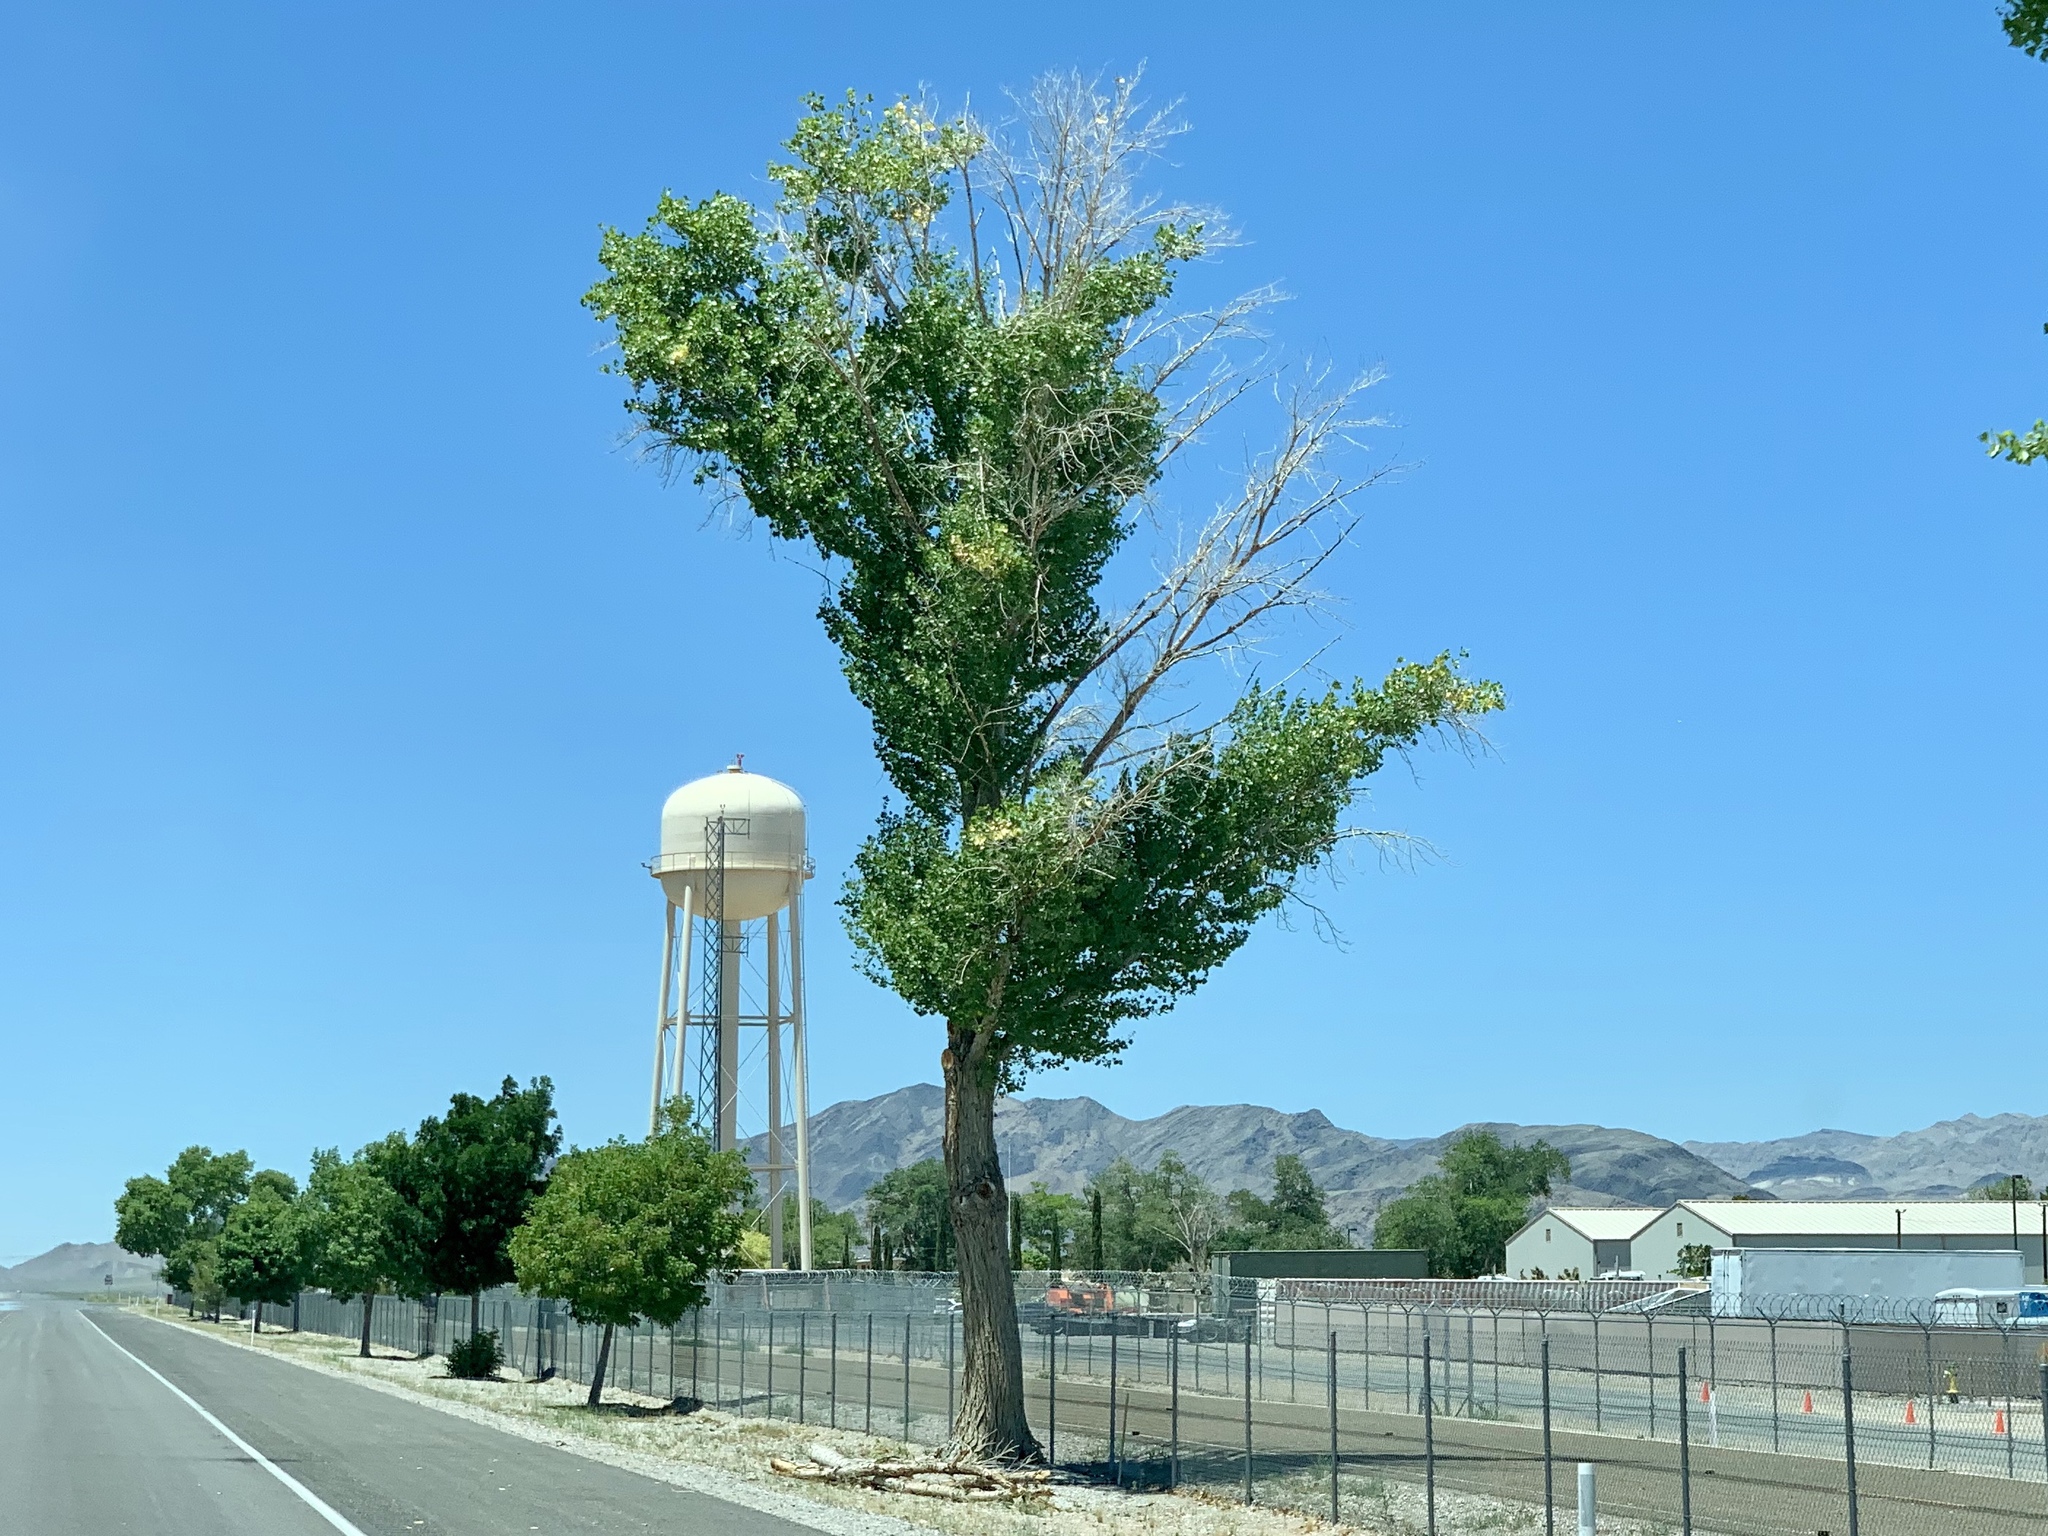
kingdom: Plantae
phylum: Tracheophyta
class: Magnoliopsida
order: Malpighiales
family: Salicaceae
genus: Populus
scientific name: Populus fremontii
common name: Fremont's cottonwood
